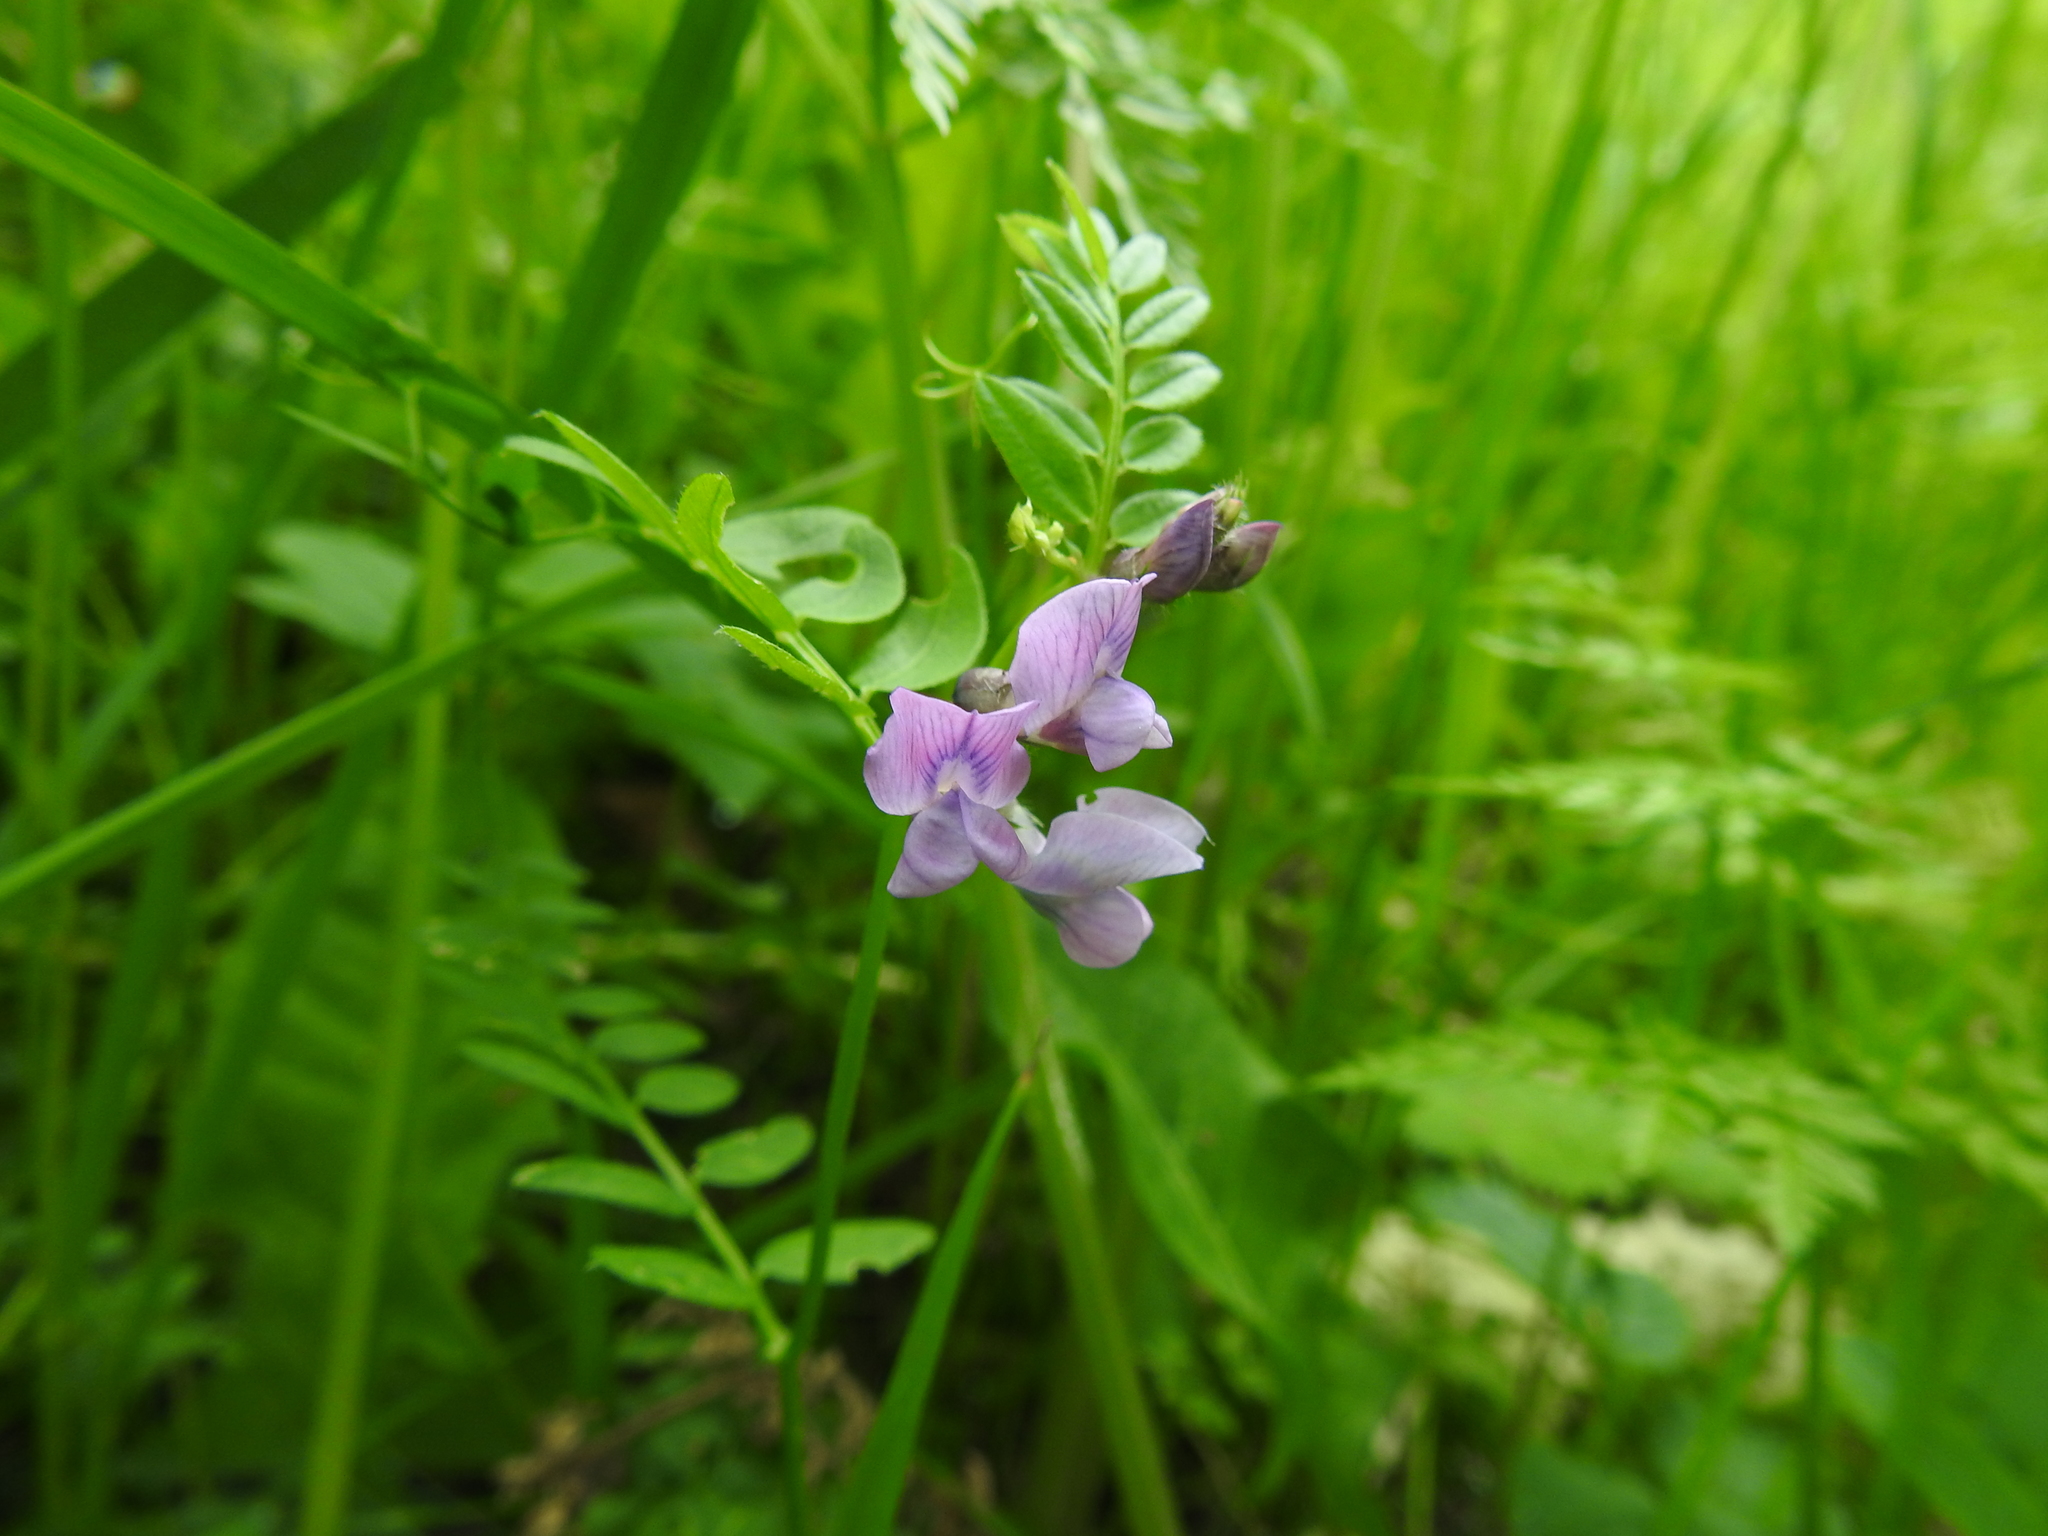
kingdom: Plantae
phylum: Tracheophyta
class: Magnoliopsida
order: Fabales
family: Fabaceae
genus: Vicia
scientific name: Vicia sepium
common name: Bush vetch
